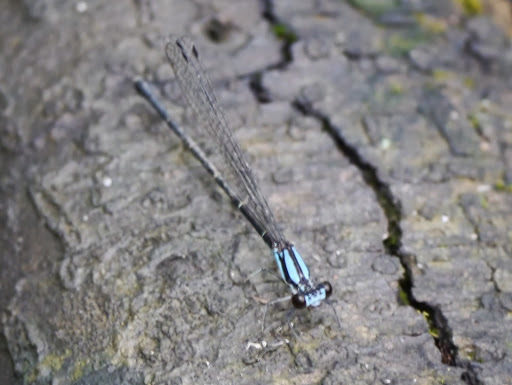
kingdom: Animalia
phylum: Arthropoda
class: Insecta
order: Odonata
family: Coenagrionidae
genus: Argia
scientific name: Argia tibialis
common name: Blue-tipped dancer
